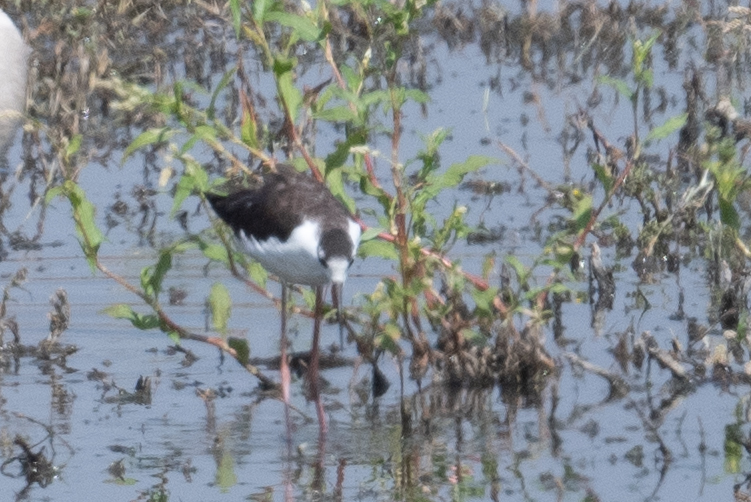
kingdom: Animalia
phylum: Chordata
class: Aves
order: Charadriiformes
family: Recurvirostridae
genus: Himantopus
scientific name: Himantopus mexicanus
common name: Black-necked stilt
